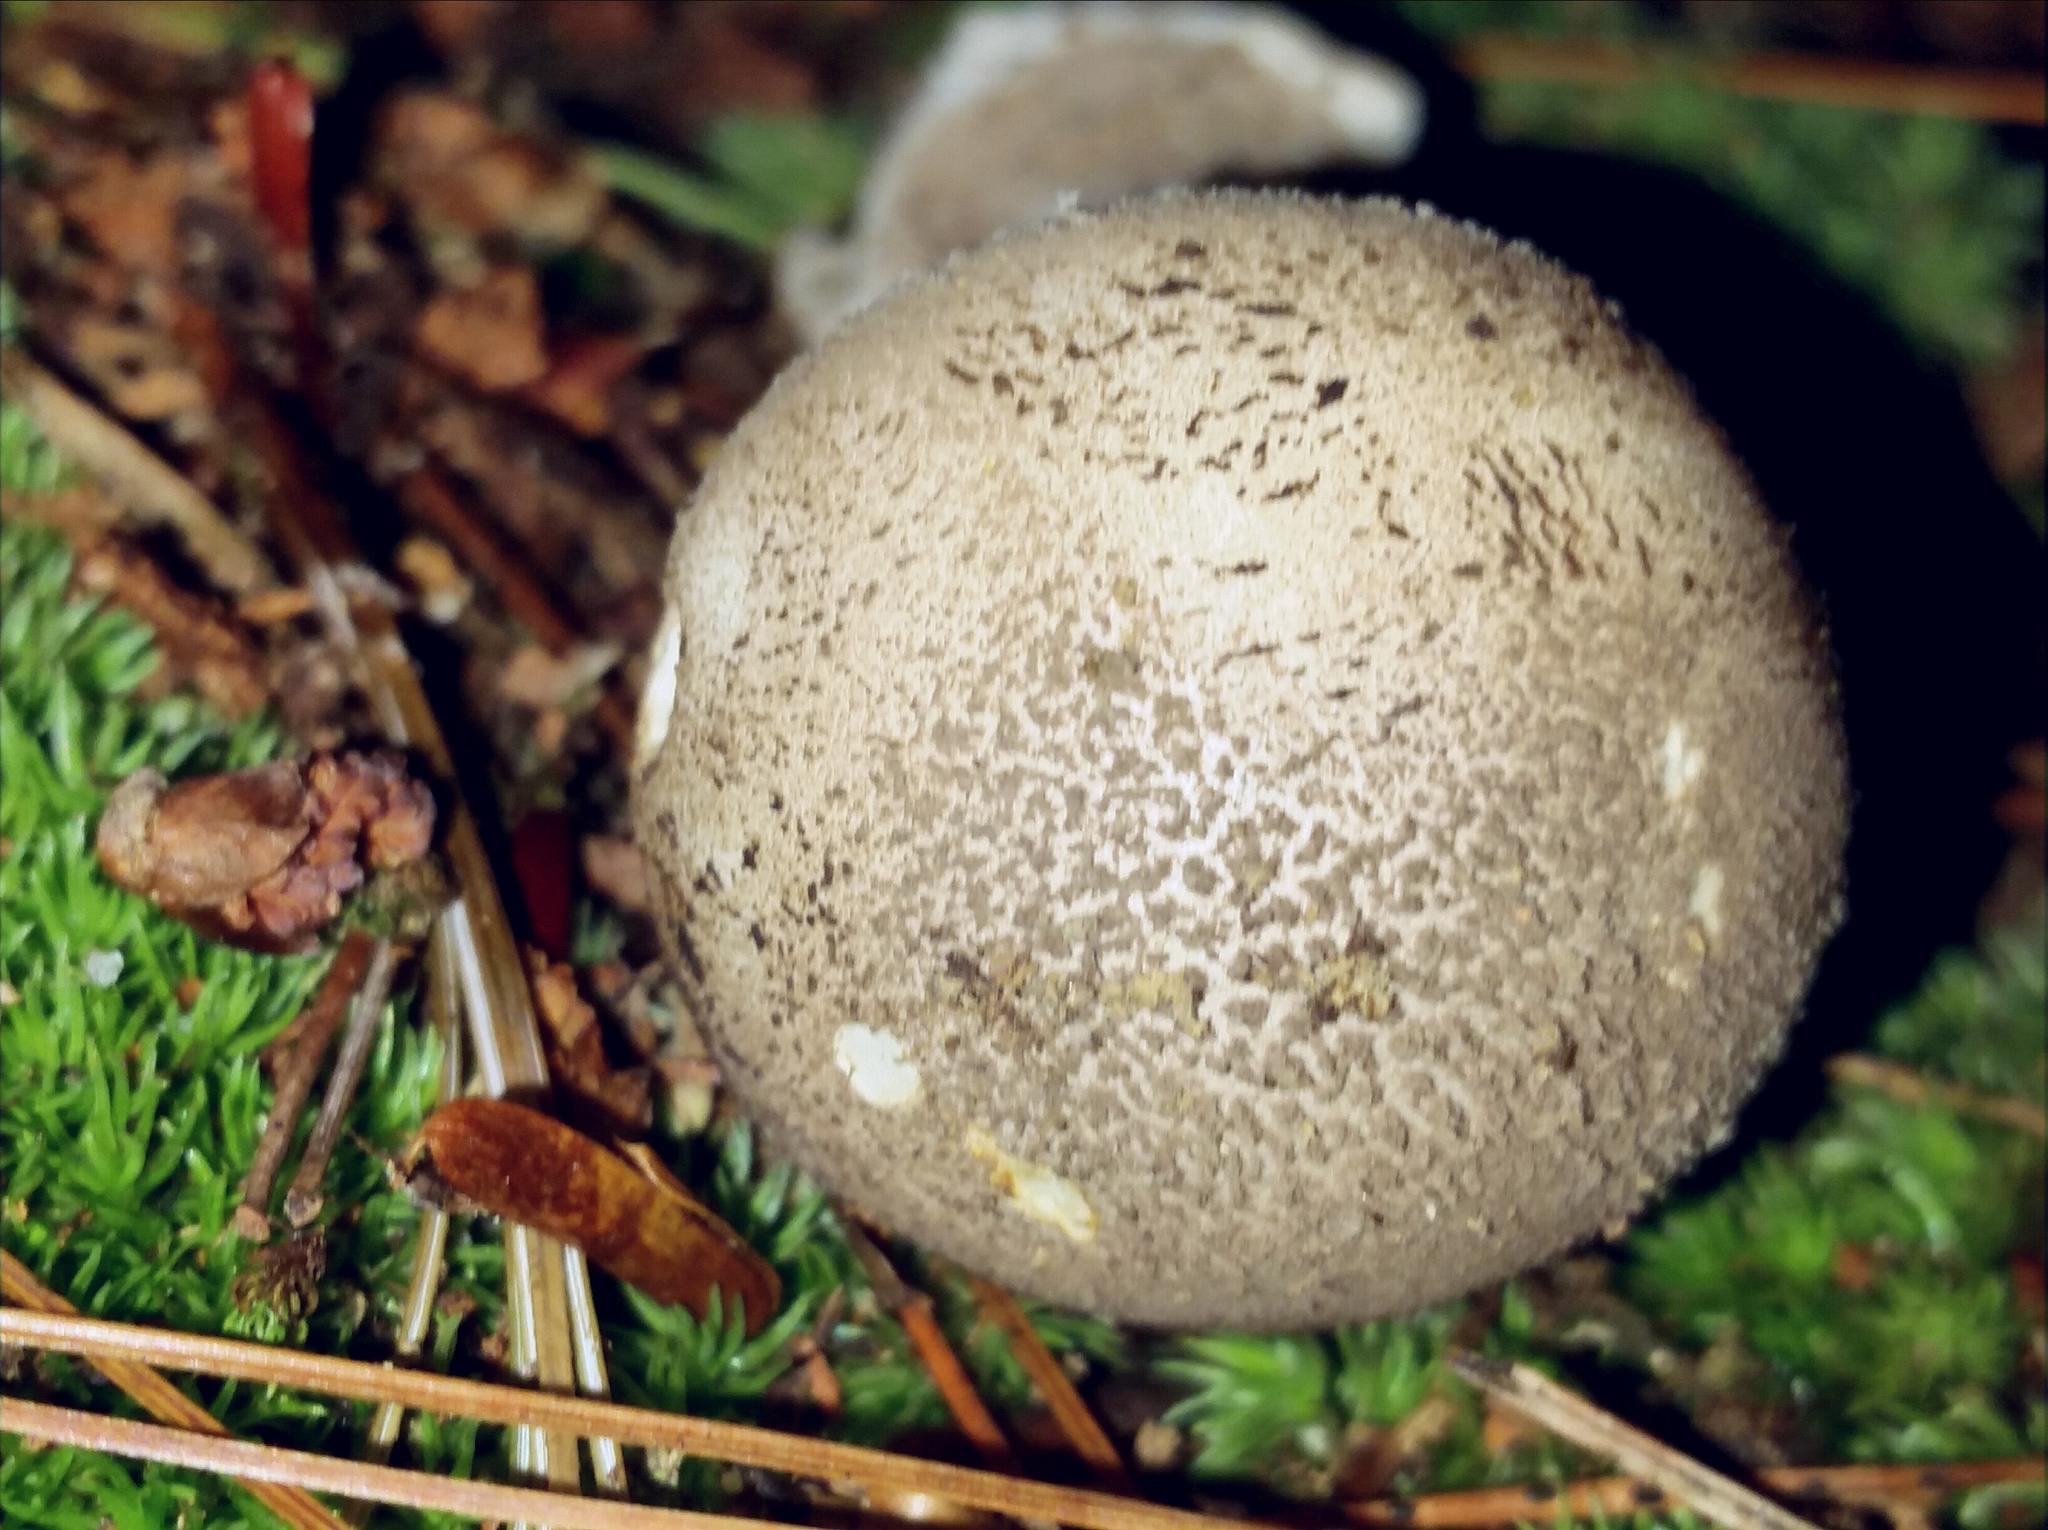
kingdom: Fungi
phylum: Basidiomycota
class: Agaricomycetes
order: Agaricales
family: Amanitaceae
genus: Amanita
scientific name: Amanita chlorinosma
